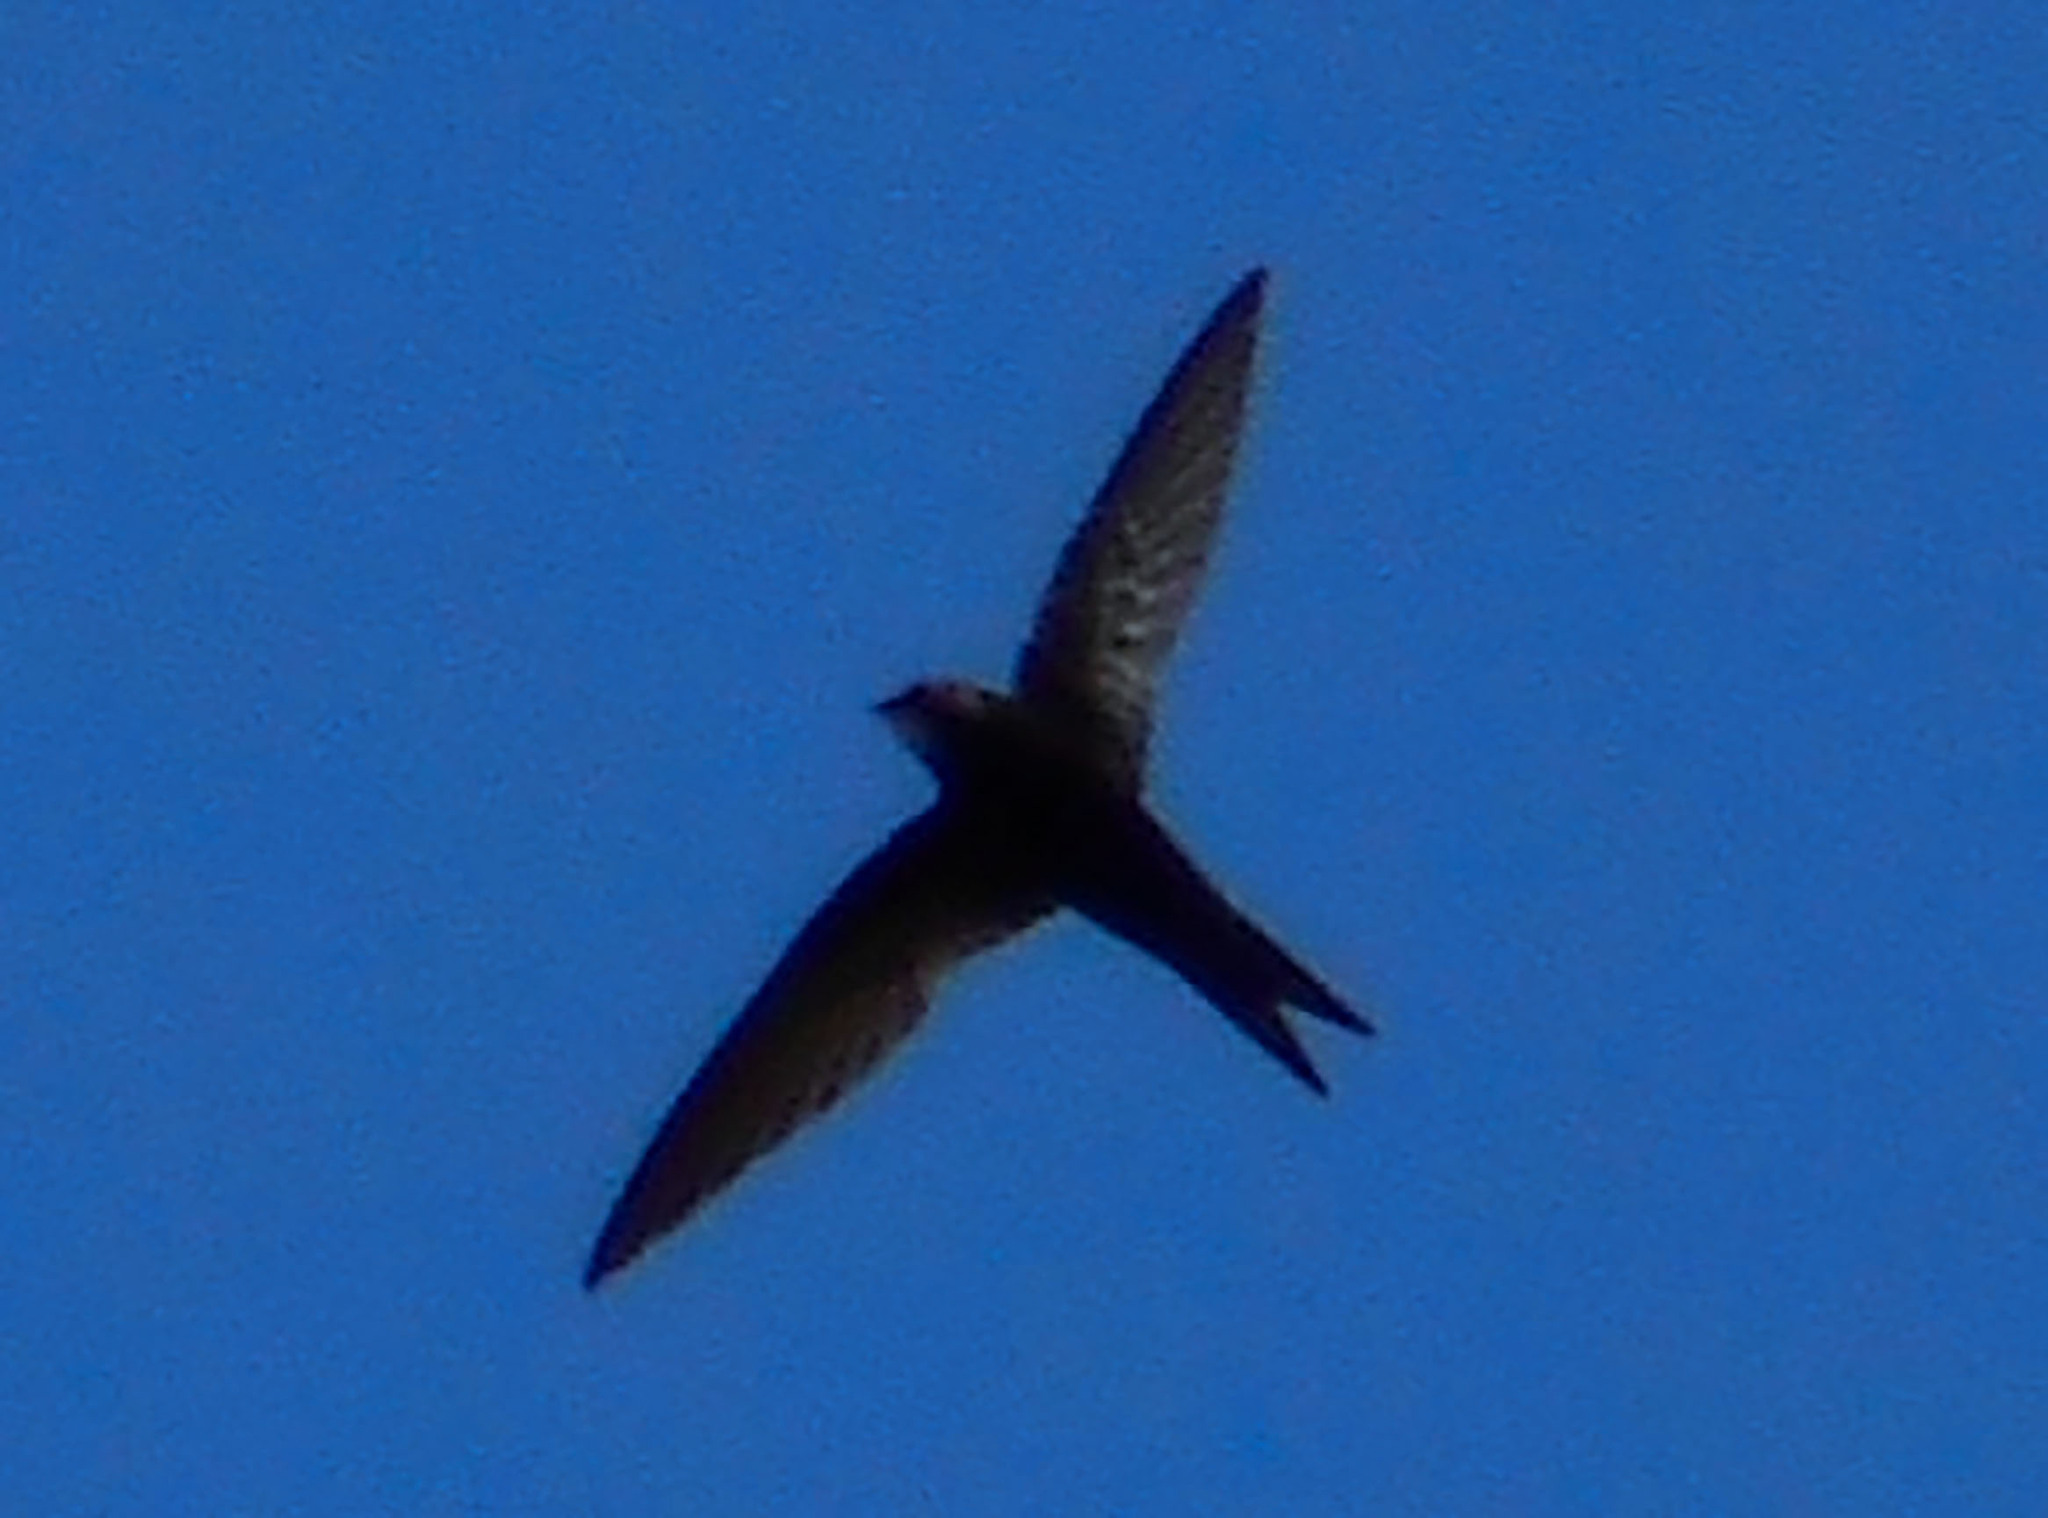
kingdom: Animalia
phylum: Chordata
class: Aves
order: Apodiformes
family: Apodidae
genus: Apus
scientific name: Apus apus
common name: Common swift
